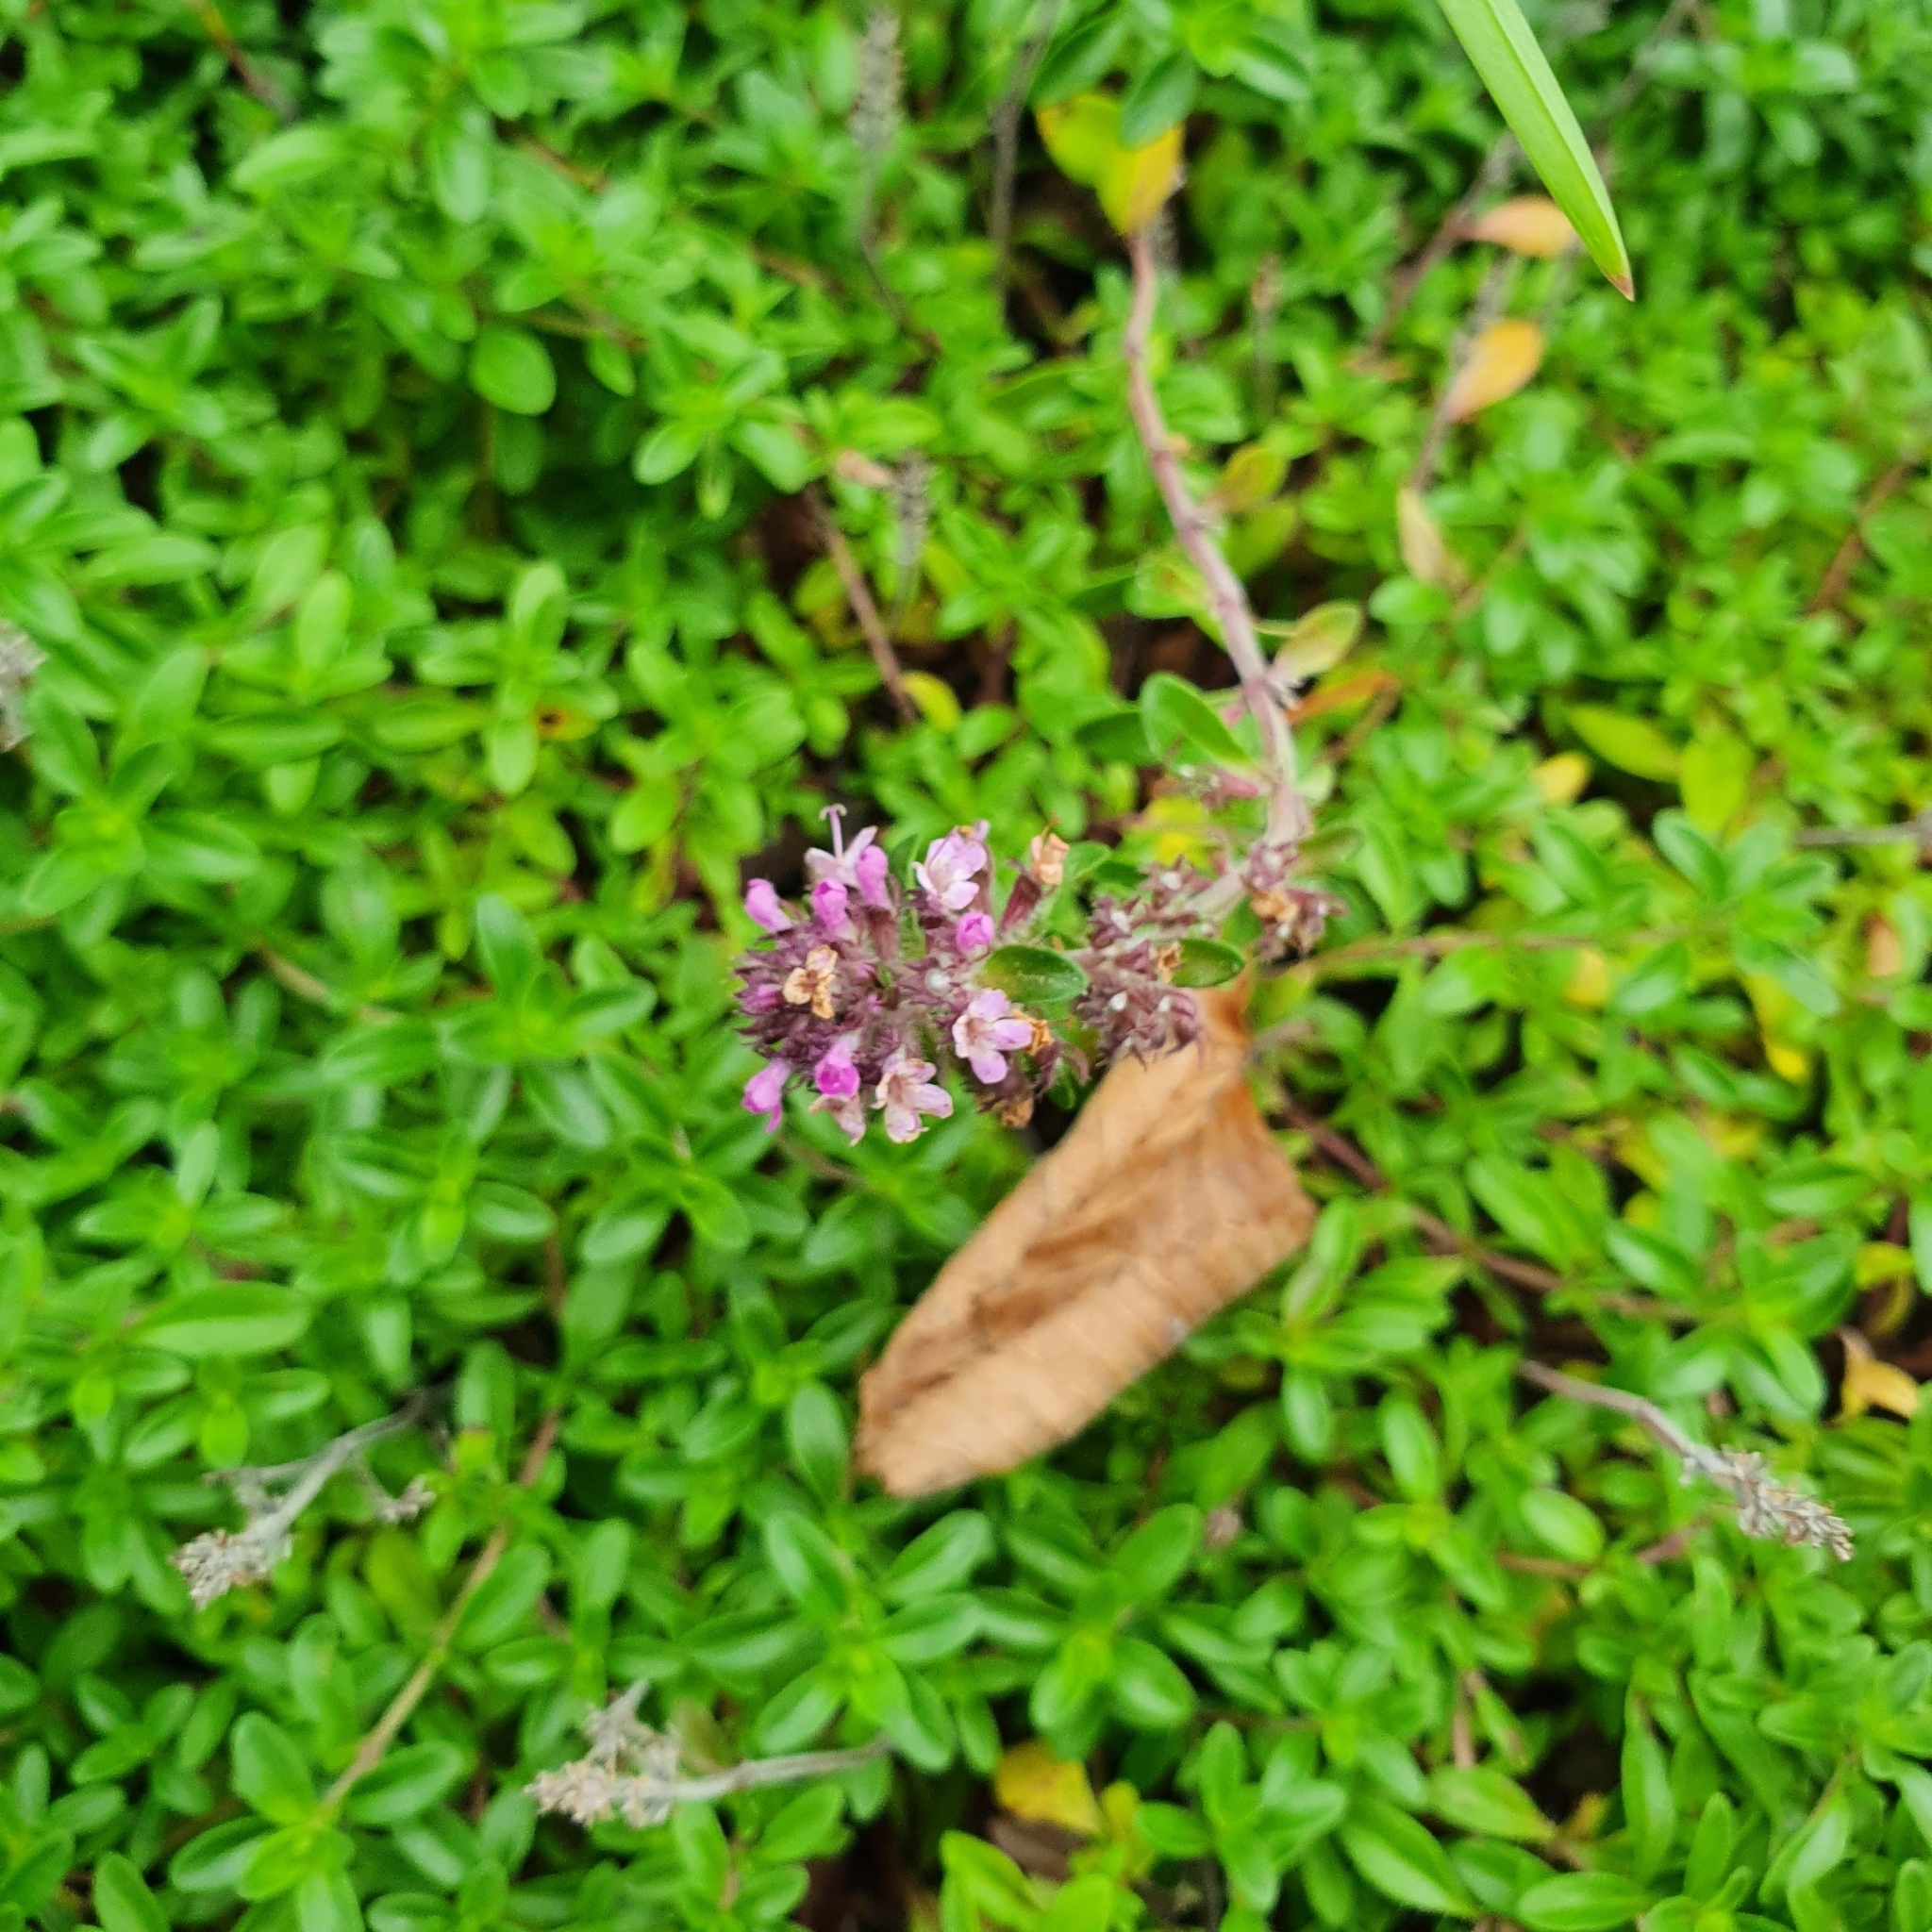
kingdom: Plantae
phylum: Tracheophyta
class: Magnoliopsida
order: Lamiales
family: Lamiaceae
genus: Thymus
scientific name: Thymus serpyllum
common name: Breckland thyme
